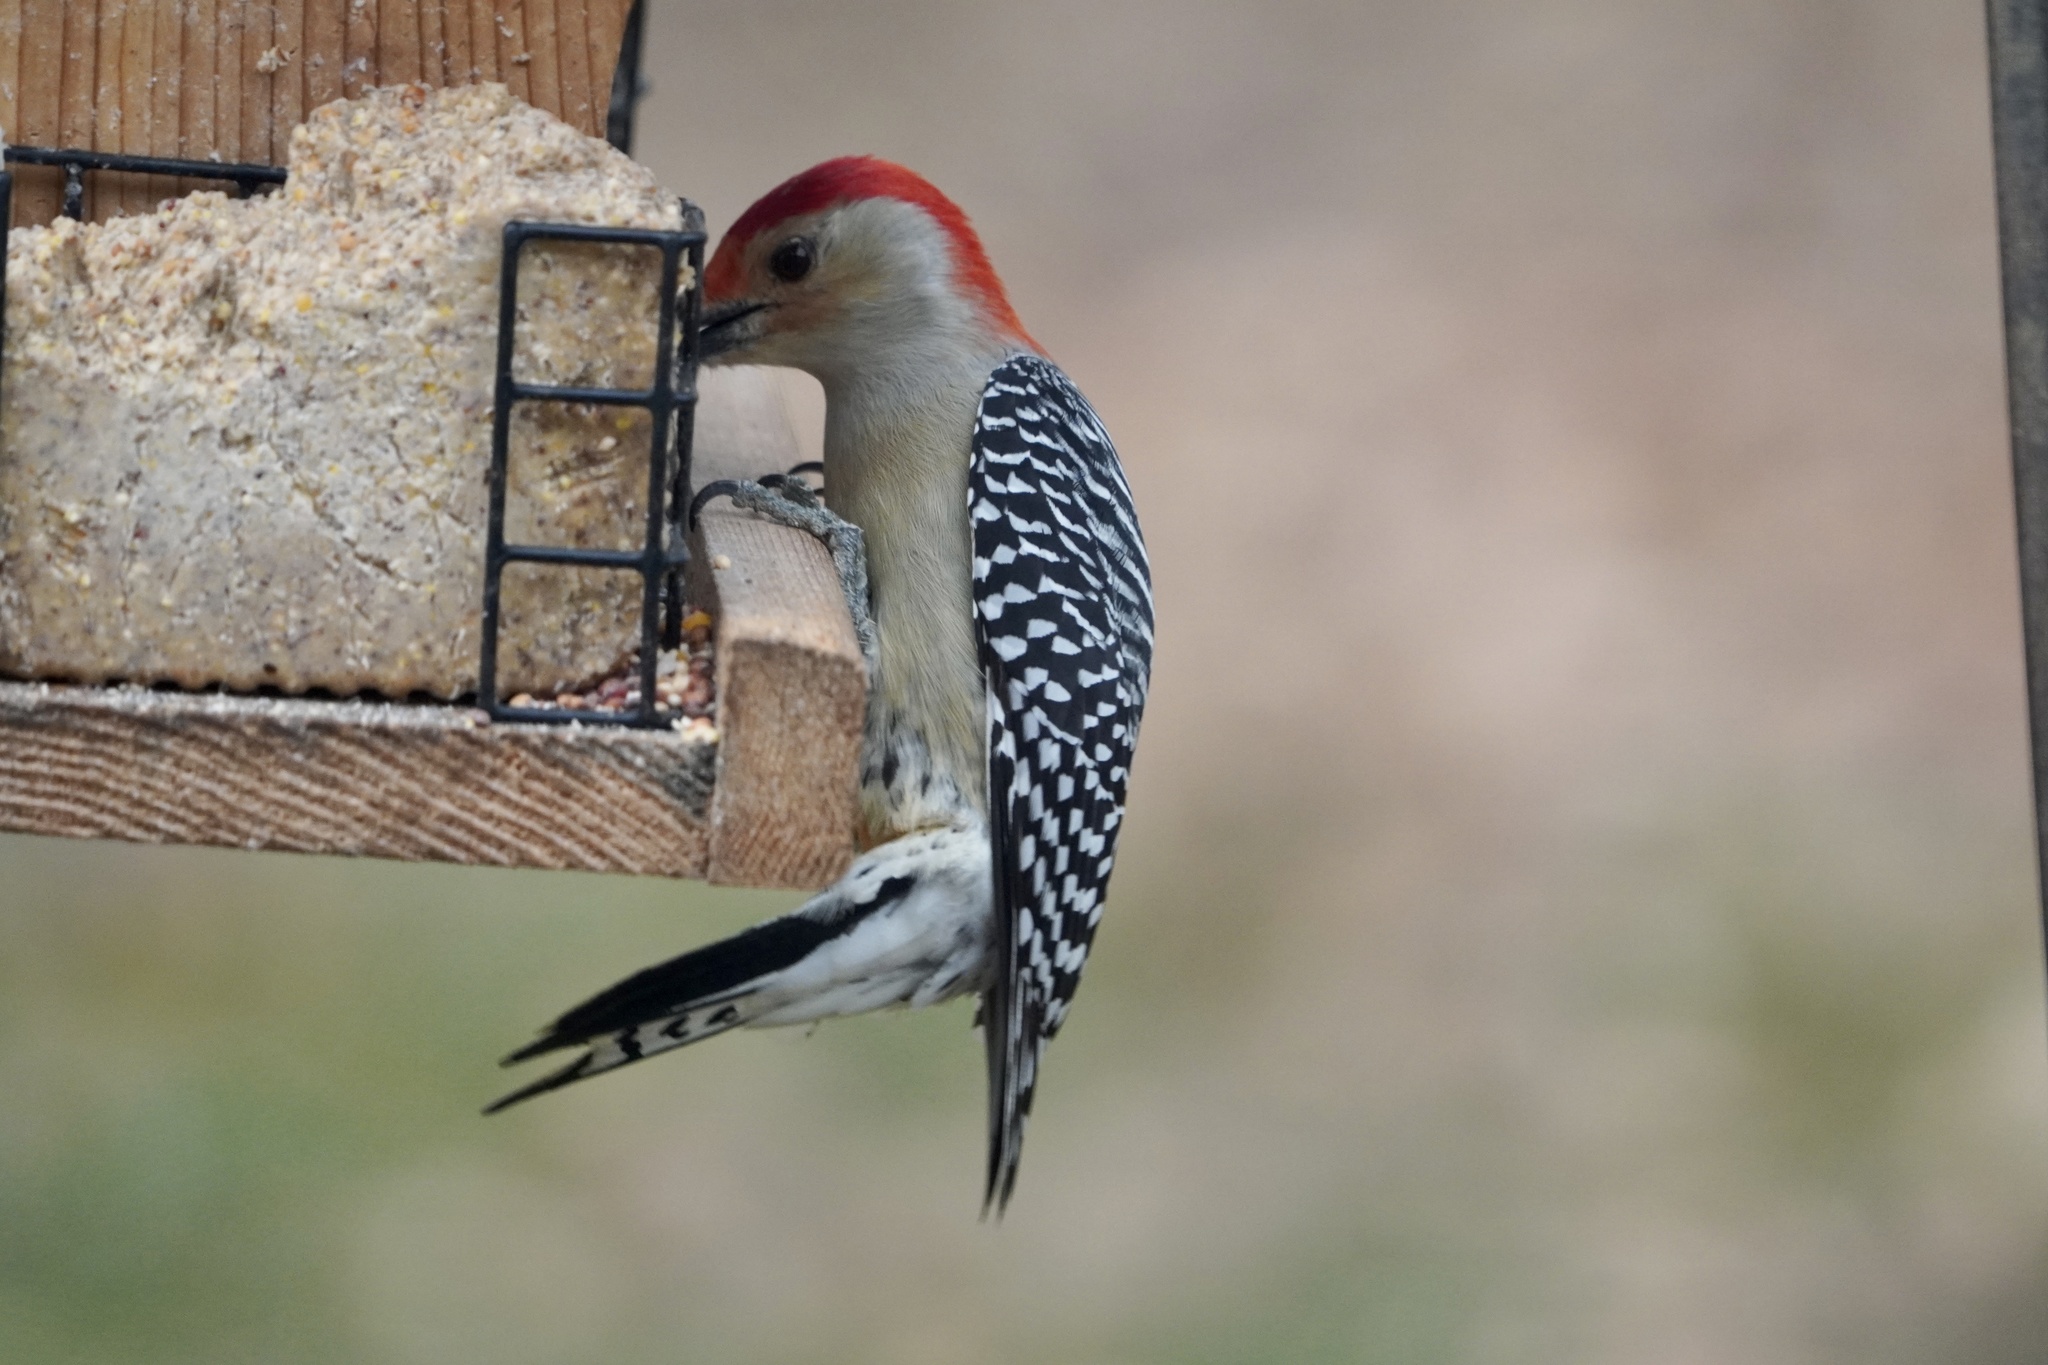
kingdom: Animalia
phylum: Chordata
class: Aves
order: Piciformes
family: Picidae
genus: Melanerpes
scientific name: Melanerpes carolinus
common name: Red-bellied woodpecker
